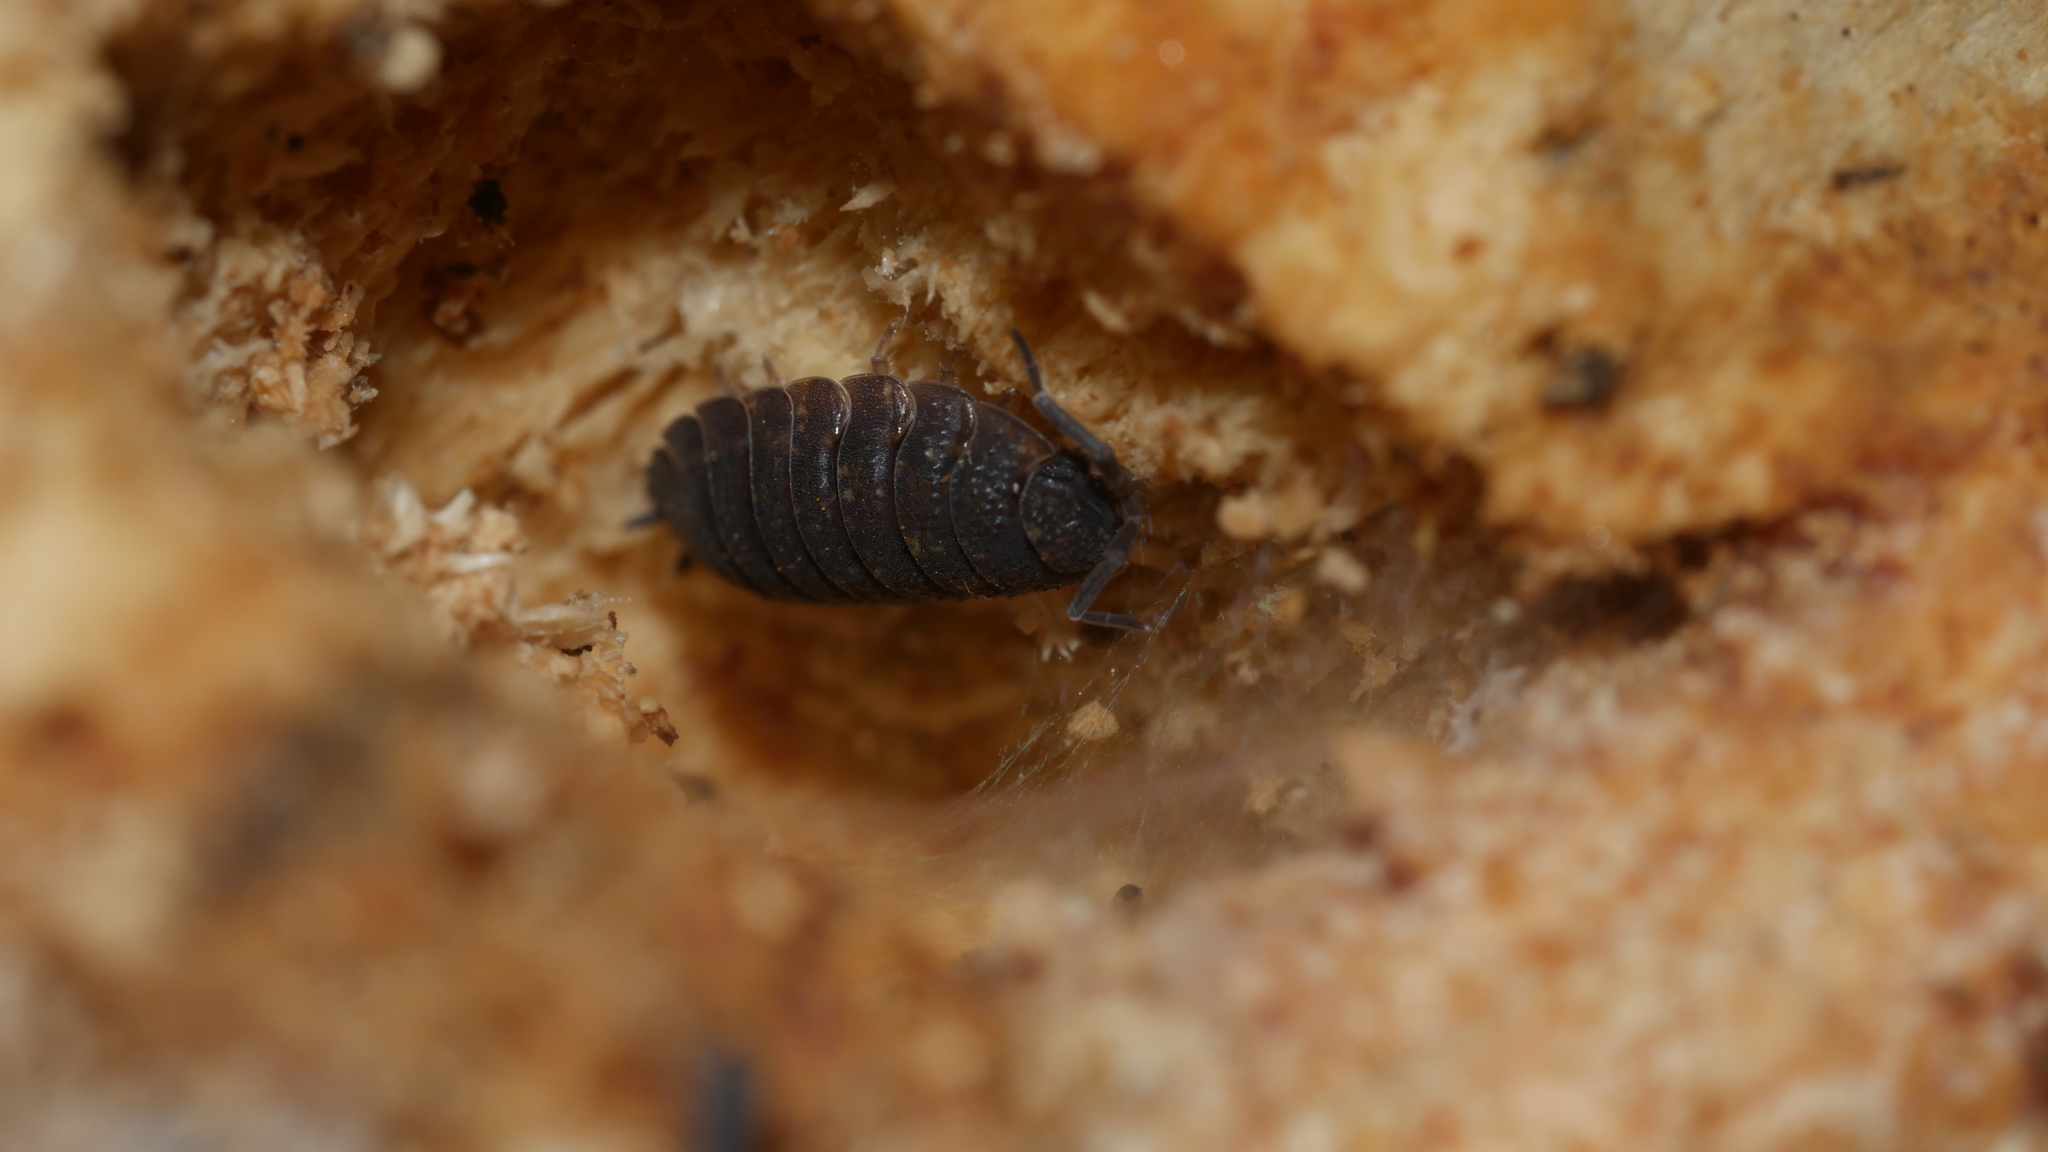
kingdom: Animalia
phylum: Arthropoda
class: Malacostraca
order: Isopoda
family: Porcellionidae
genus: Porcellio
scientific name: Porcellio scaber
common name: Common rough woodlouse
